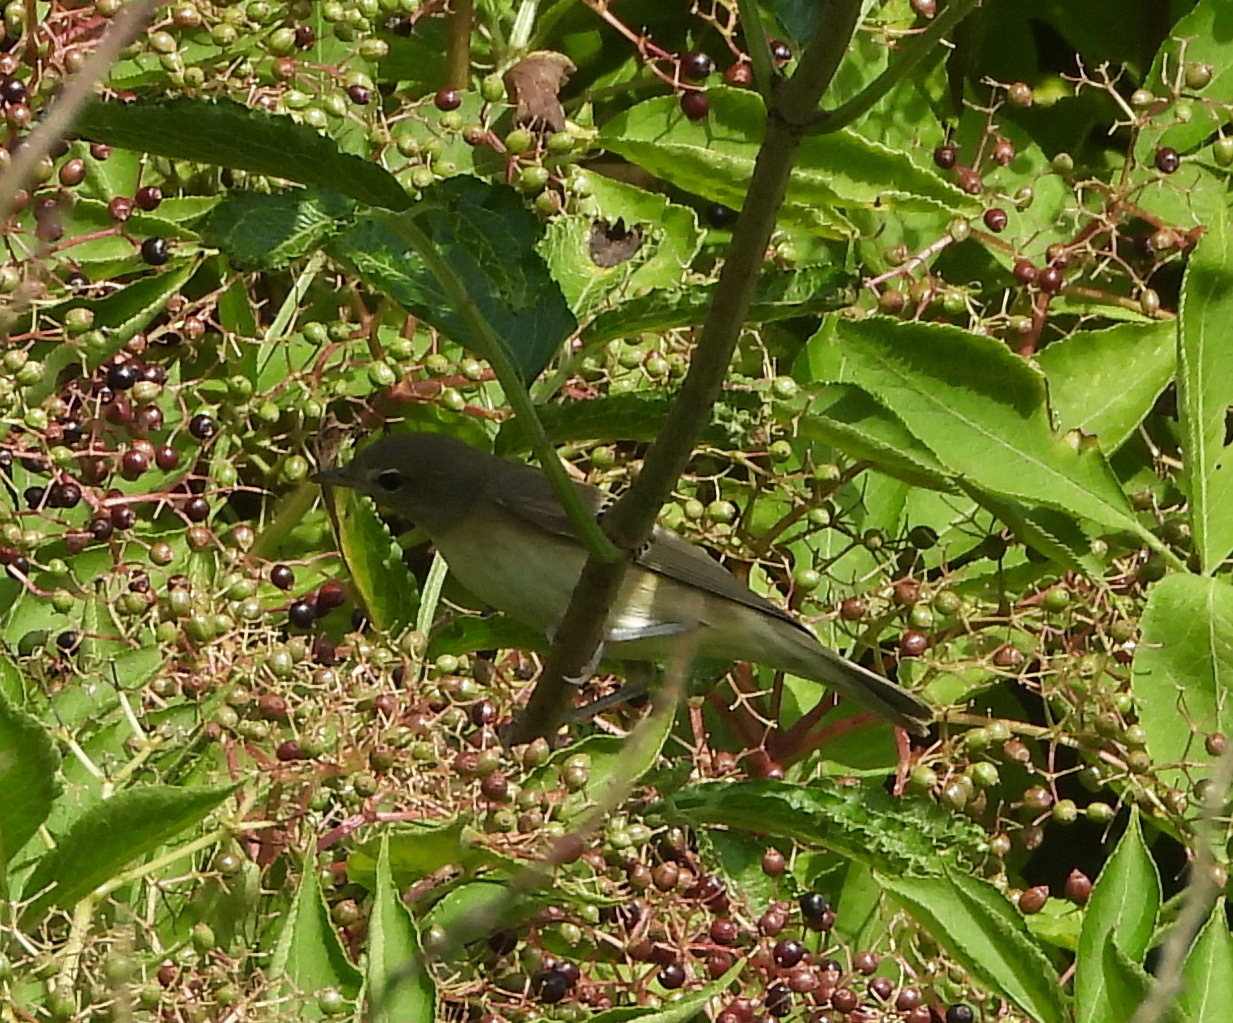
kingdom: Animalia
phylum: Chordata
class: Aves
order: Passeriformes
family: Sylviidae
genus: Sylvia
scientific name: Sylvia borin
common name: Garden warbler
